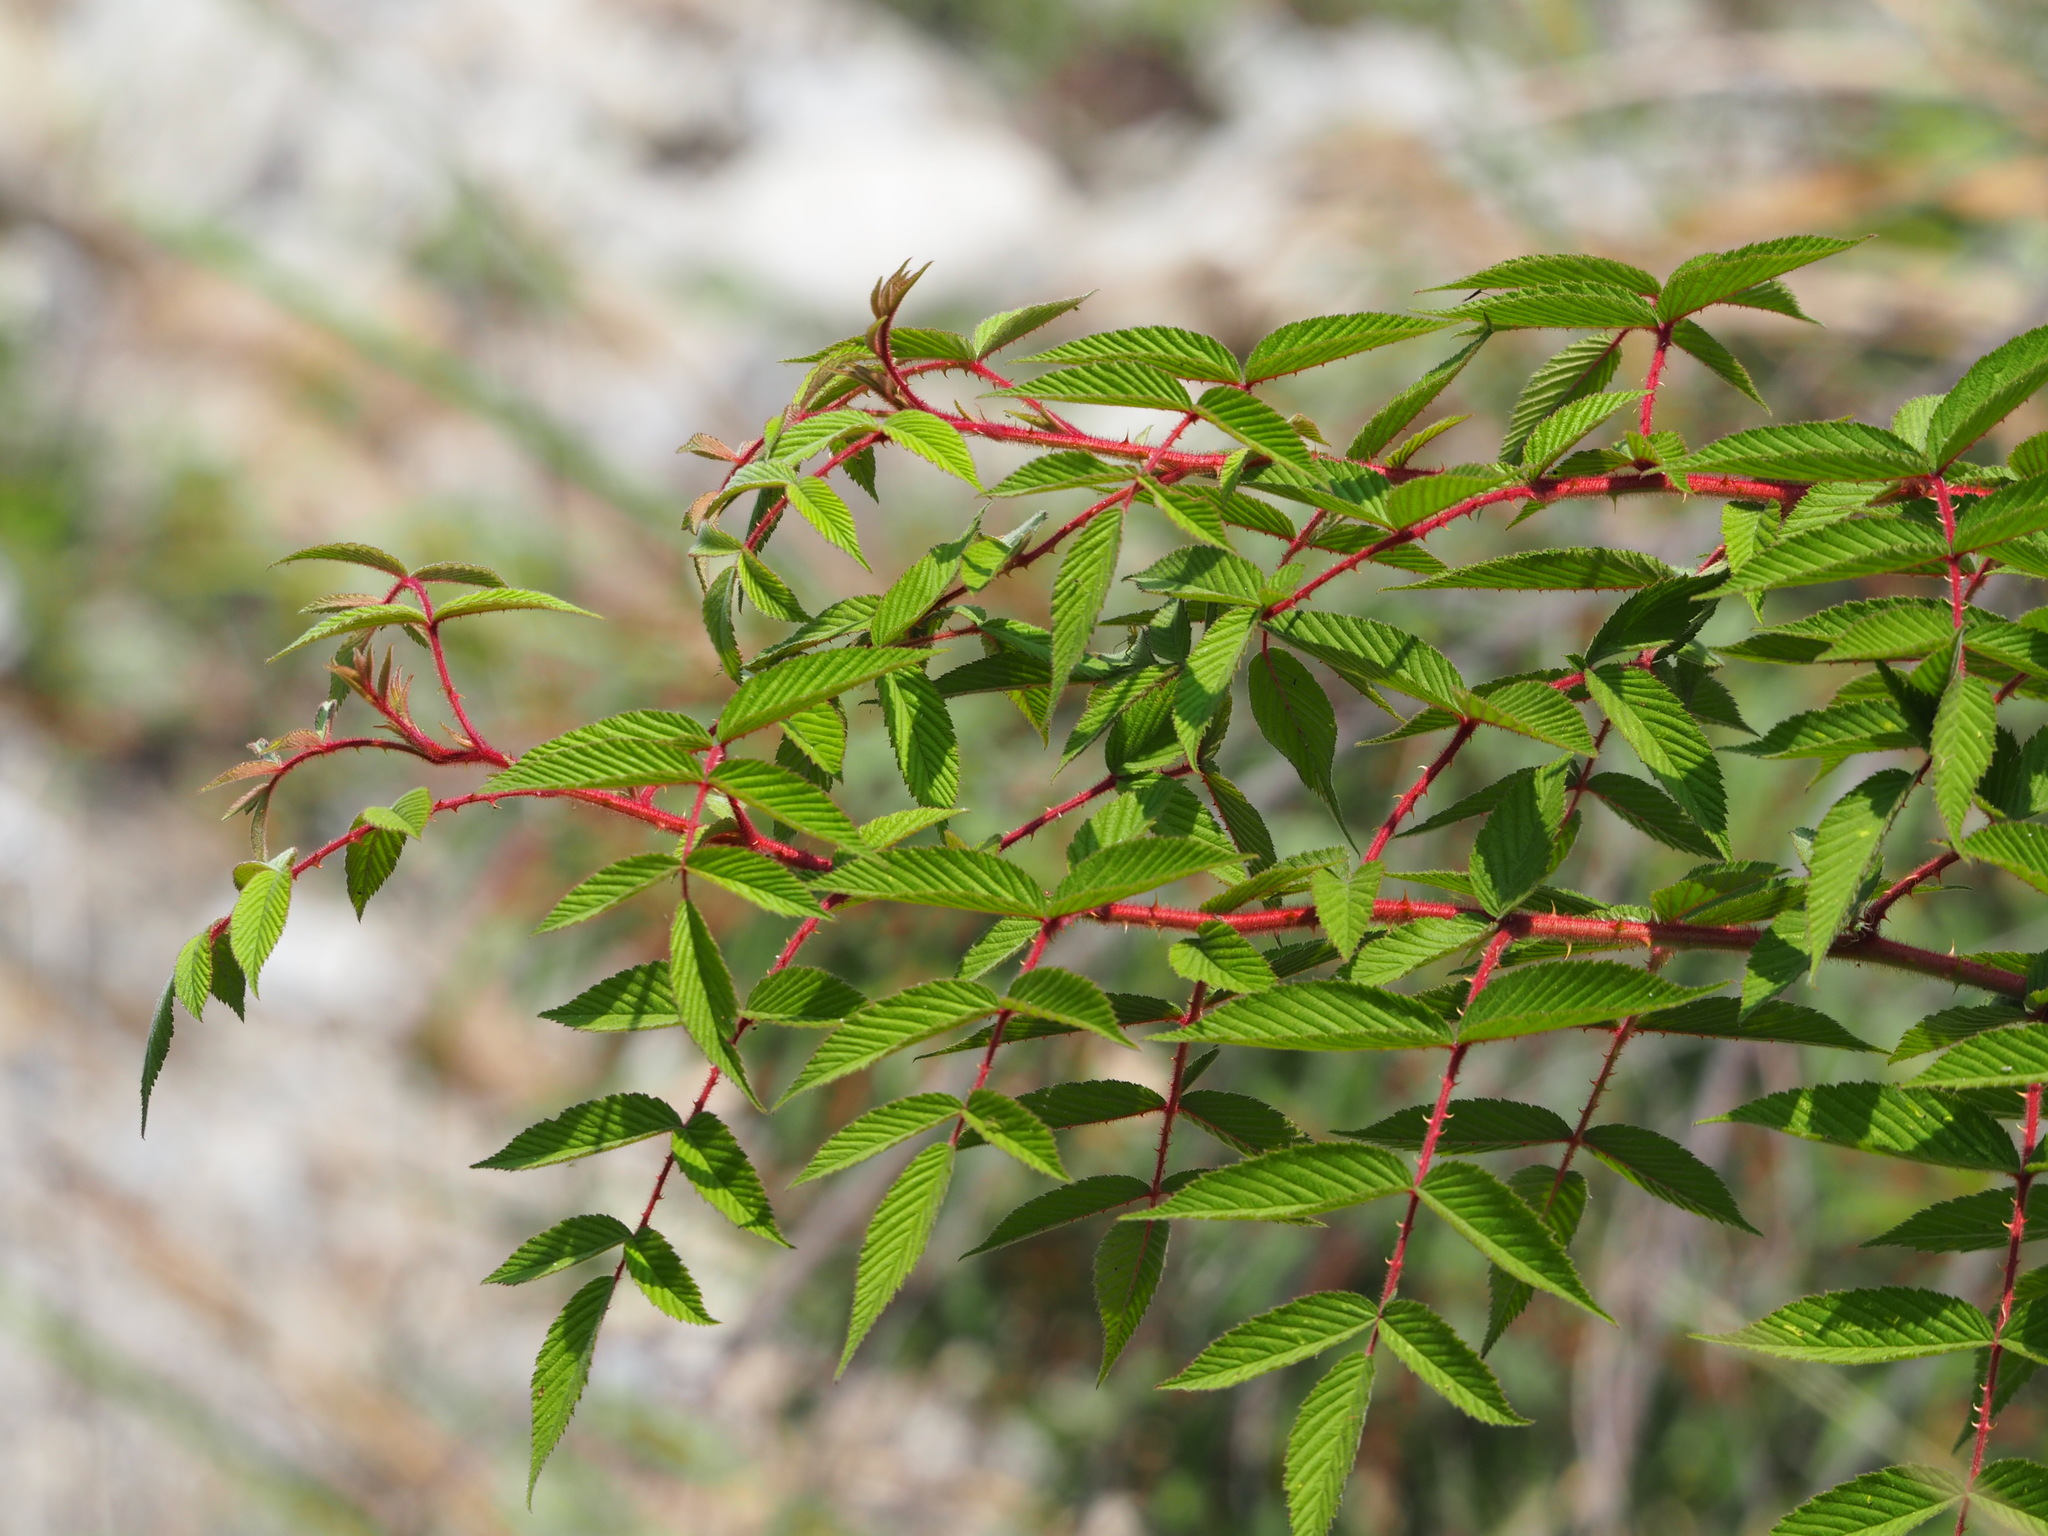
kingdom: Plantae
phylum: Tracheophyta
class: Magnoliopsida
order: Rosales
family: Rosaceae
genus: Rubus
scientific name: Rubus croceacanthus
